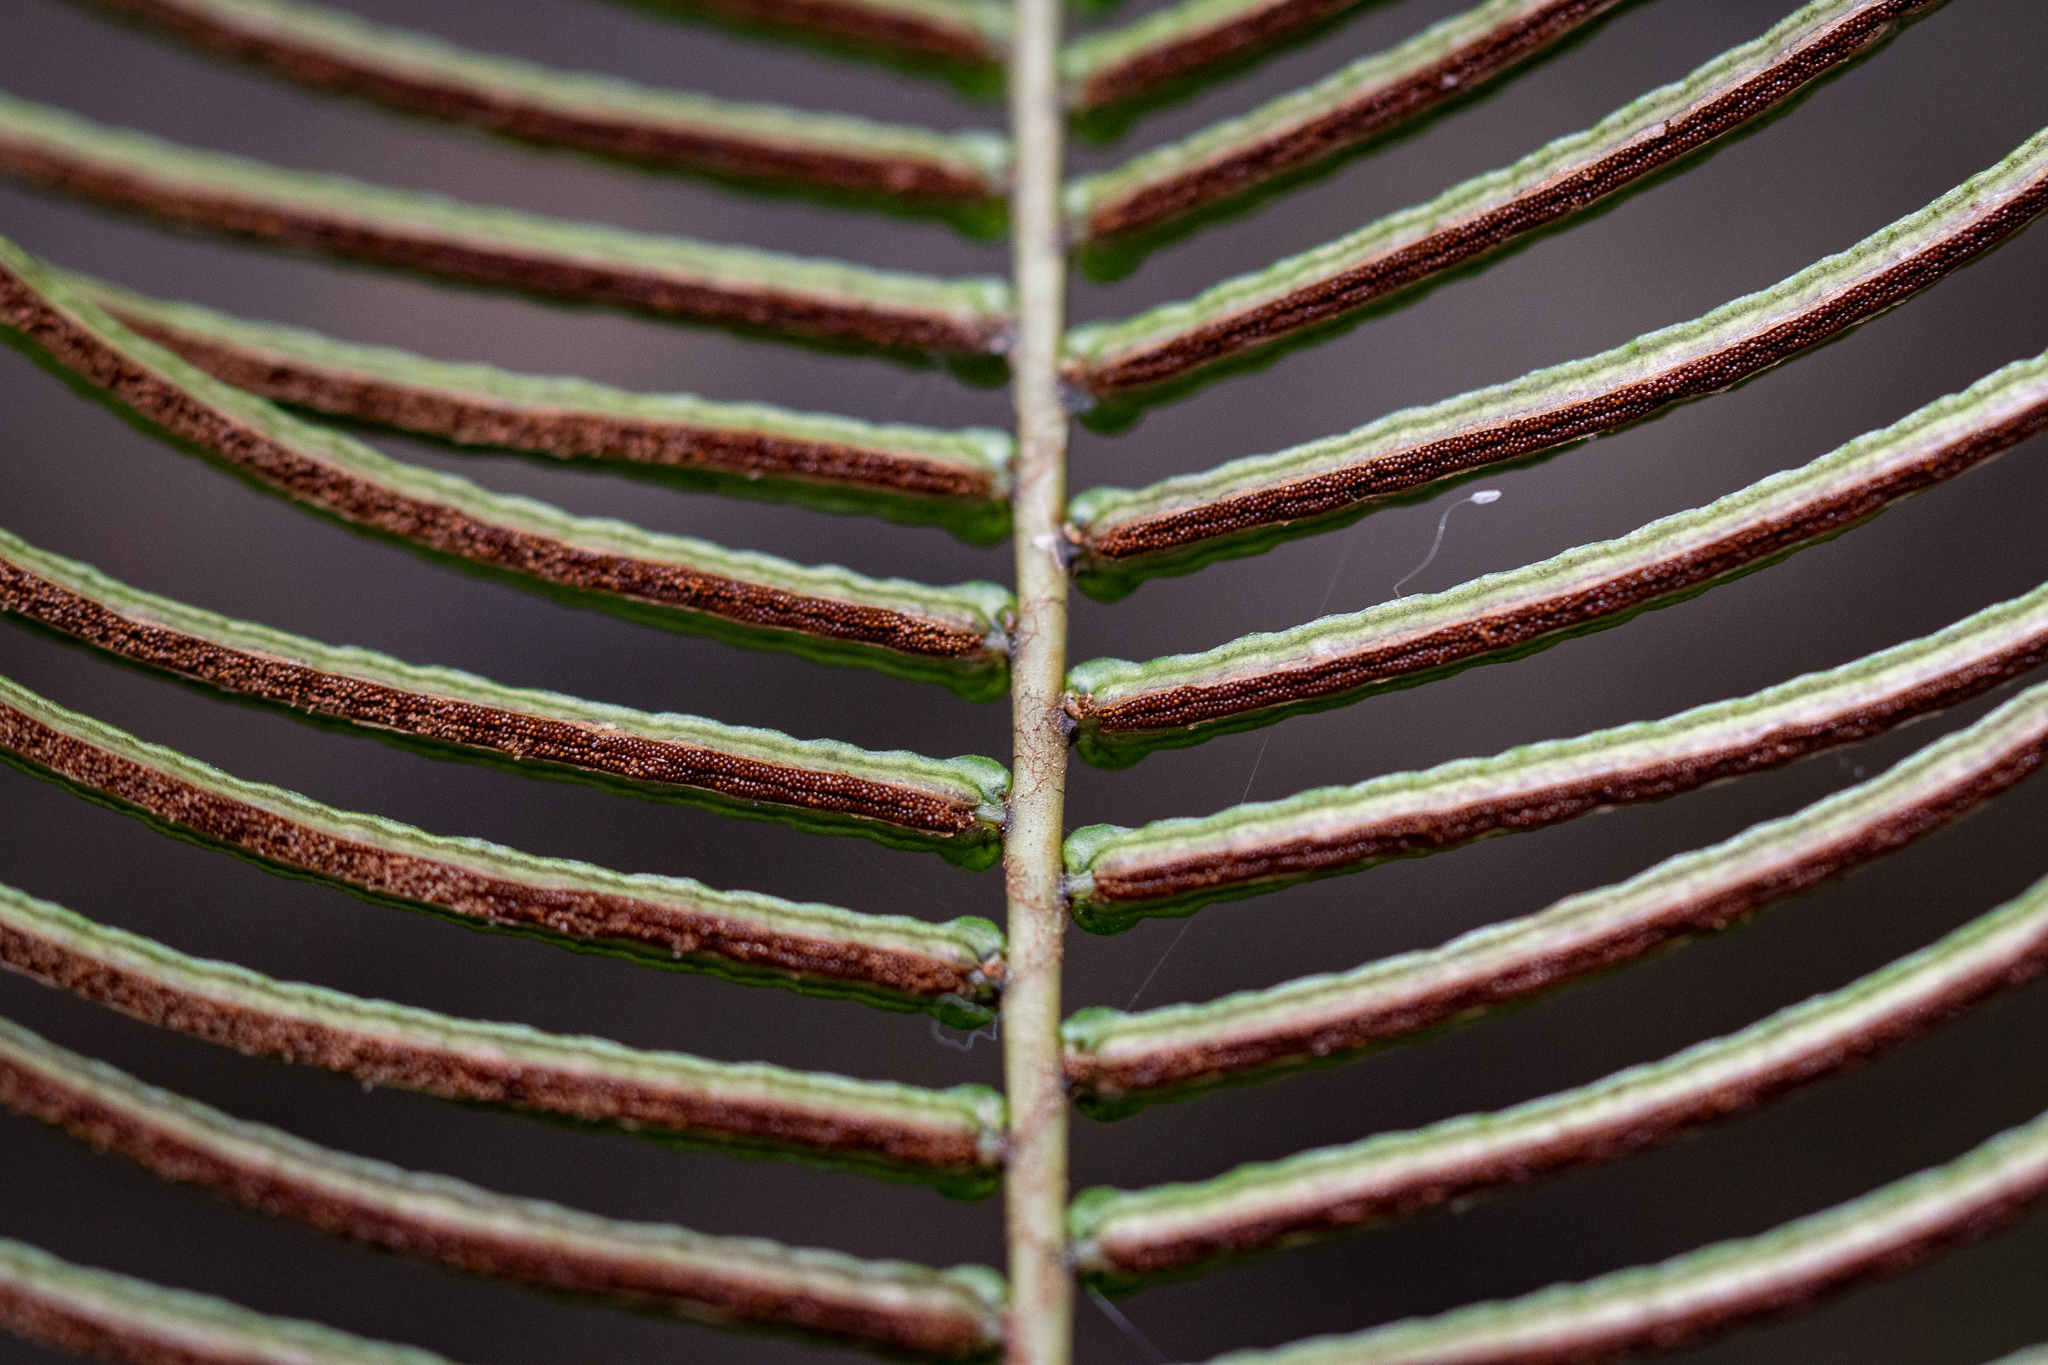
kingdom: Plantae
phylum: Tracheophyta
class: Polypodiopsida
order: Polypodiales
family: Blechnaceae
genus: Blechnum
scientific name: Blechnum punctulatum
